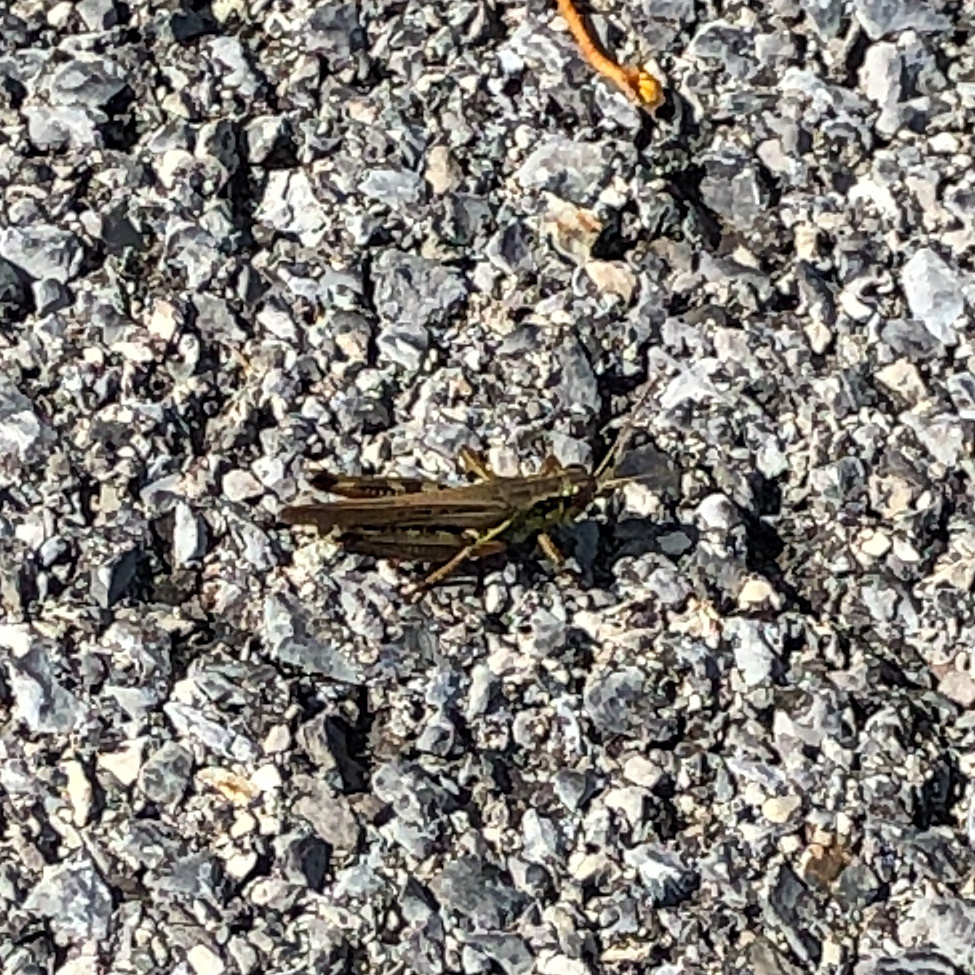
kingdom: Animalia
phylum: Arthropoda
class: Insecta
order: Orthoptera
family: Acrididae
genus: Melanoplus
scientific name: Melanoplus femurrubrum
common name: Red-legged grasshopper
